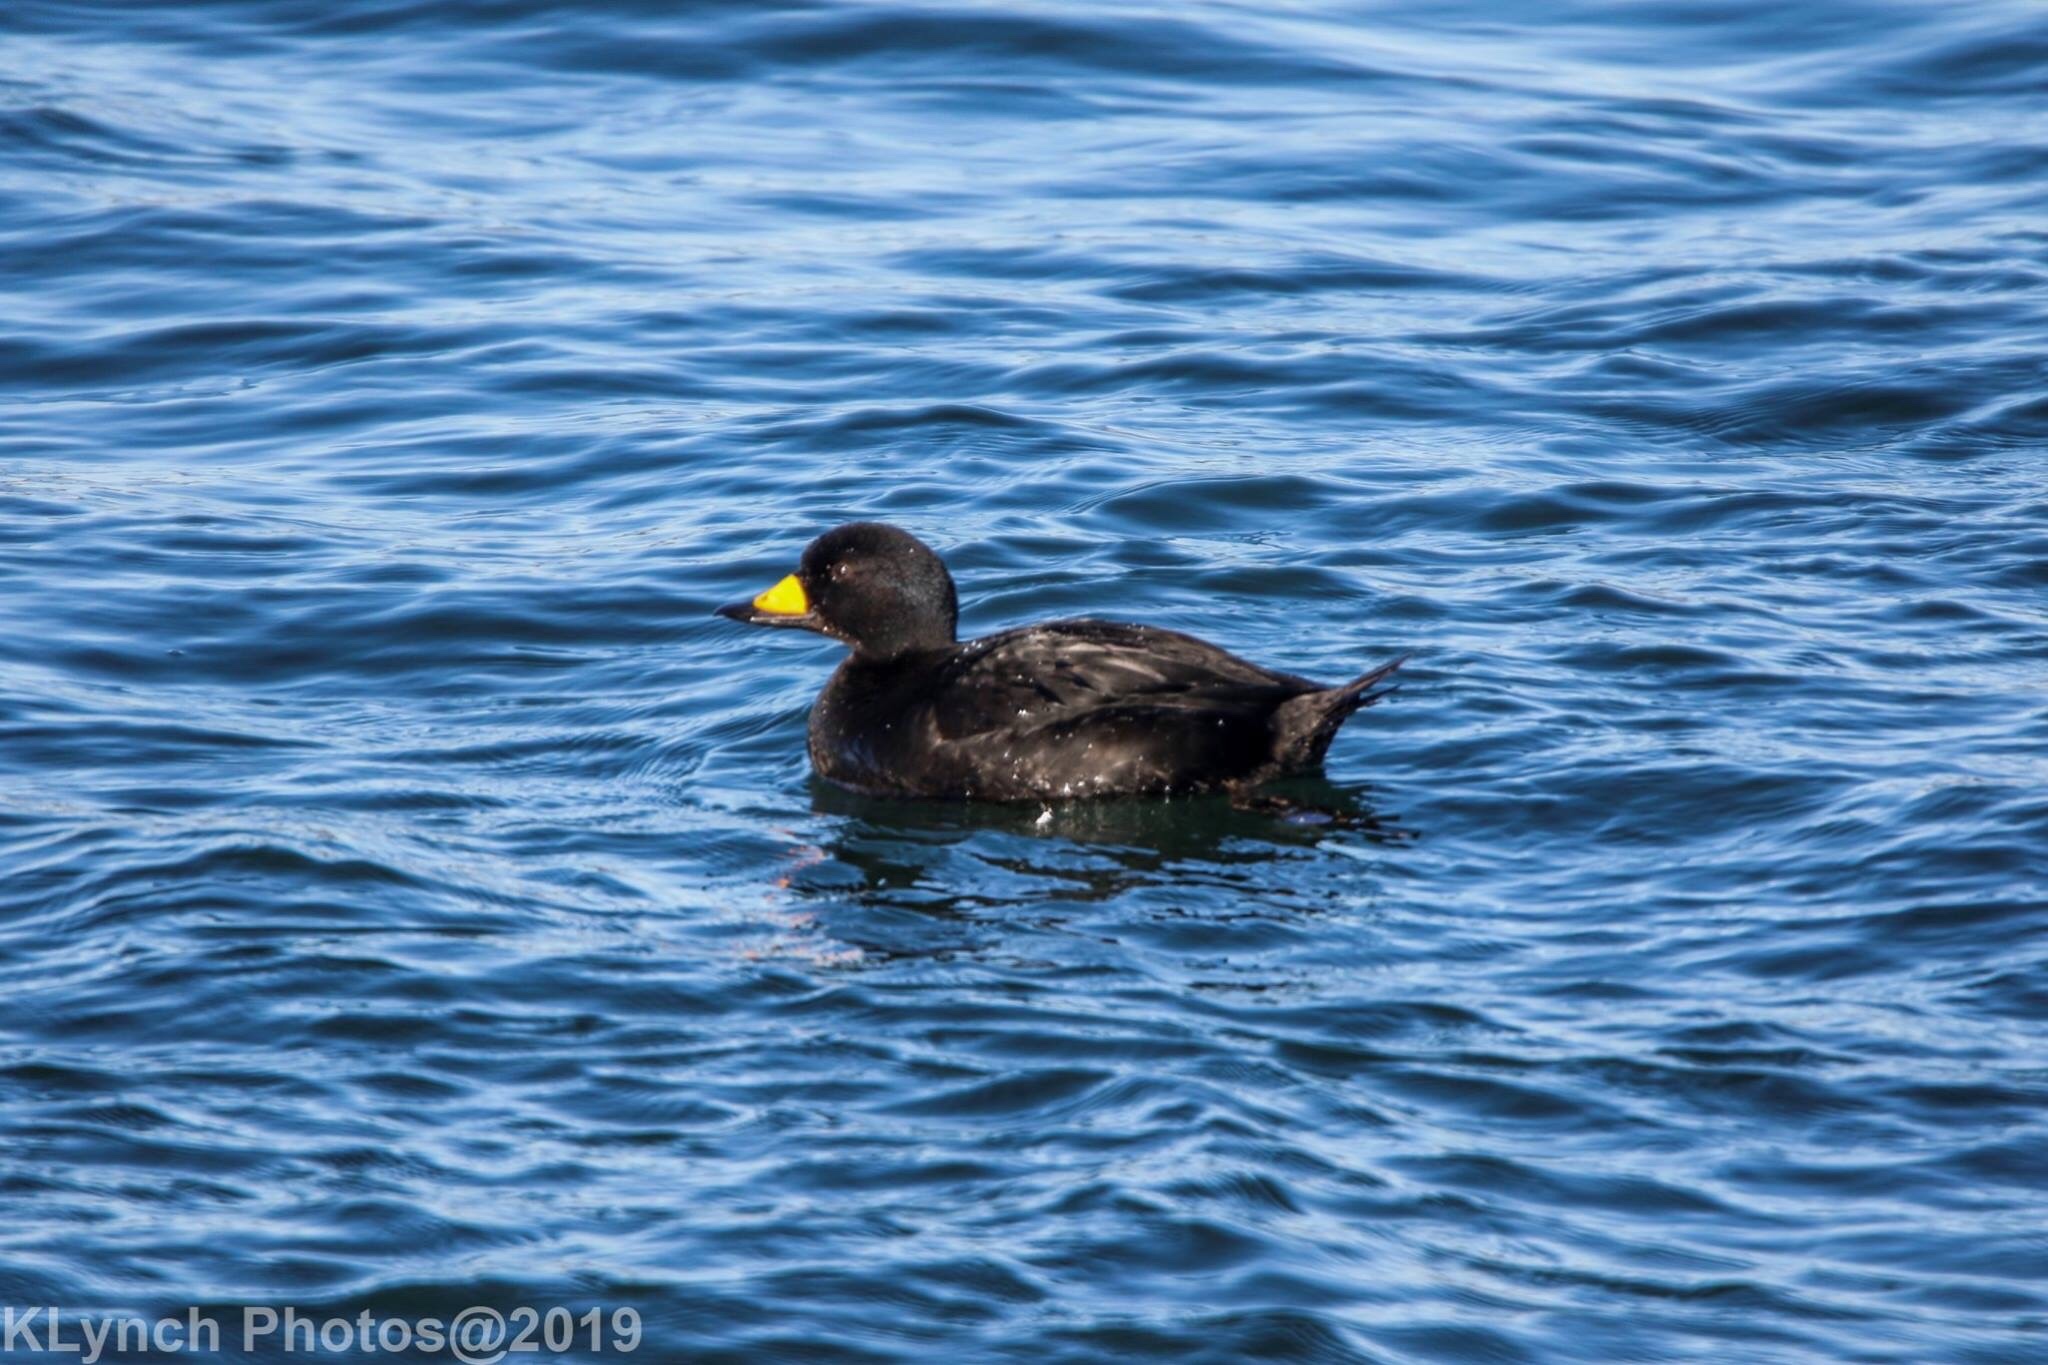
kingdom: Animalia
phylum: Chordata
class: Aves
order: Anseriformes
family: Anatidae
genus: Melanitta
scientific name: Melanitta americana
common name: Black scoter
